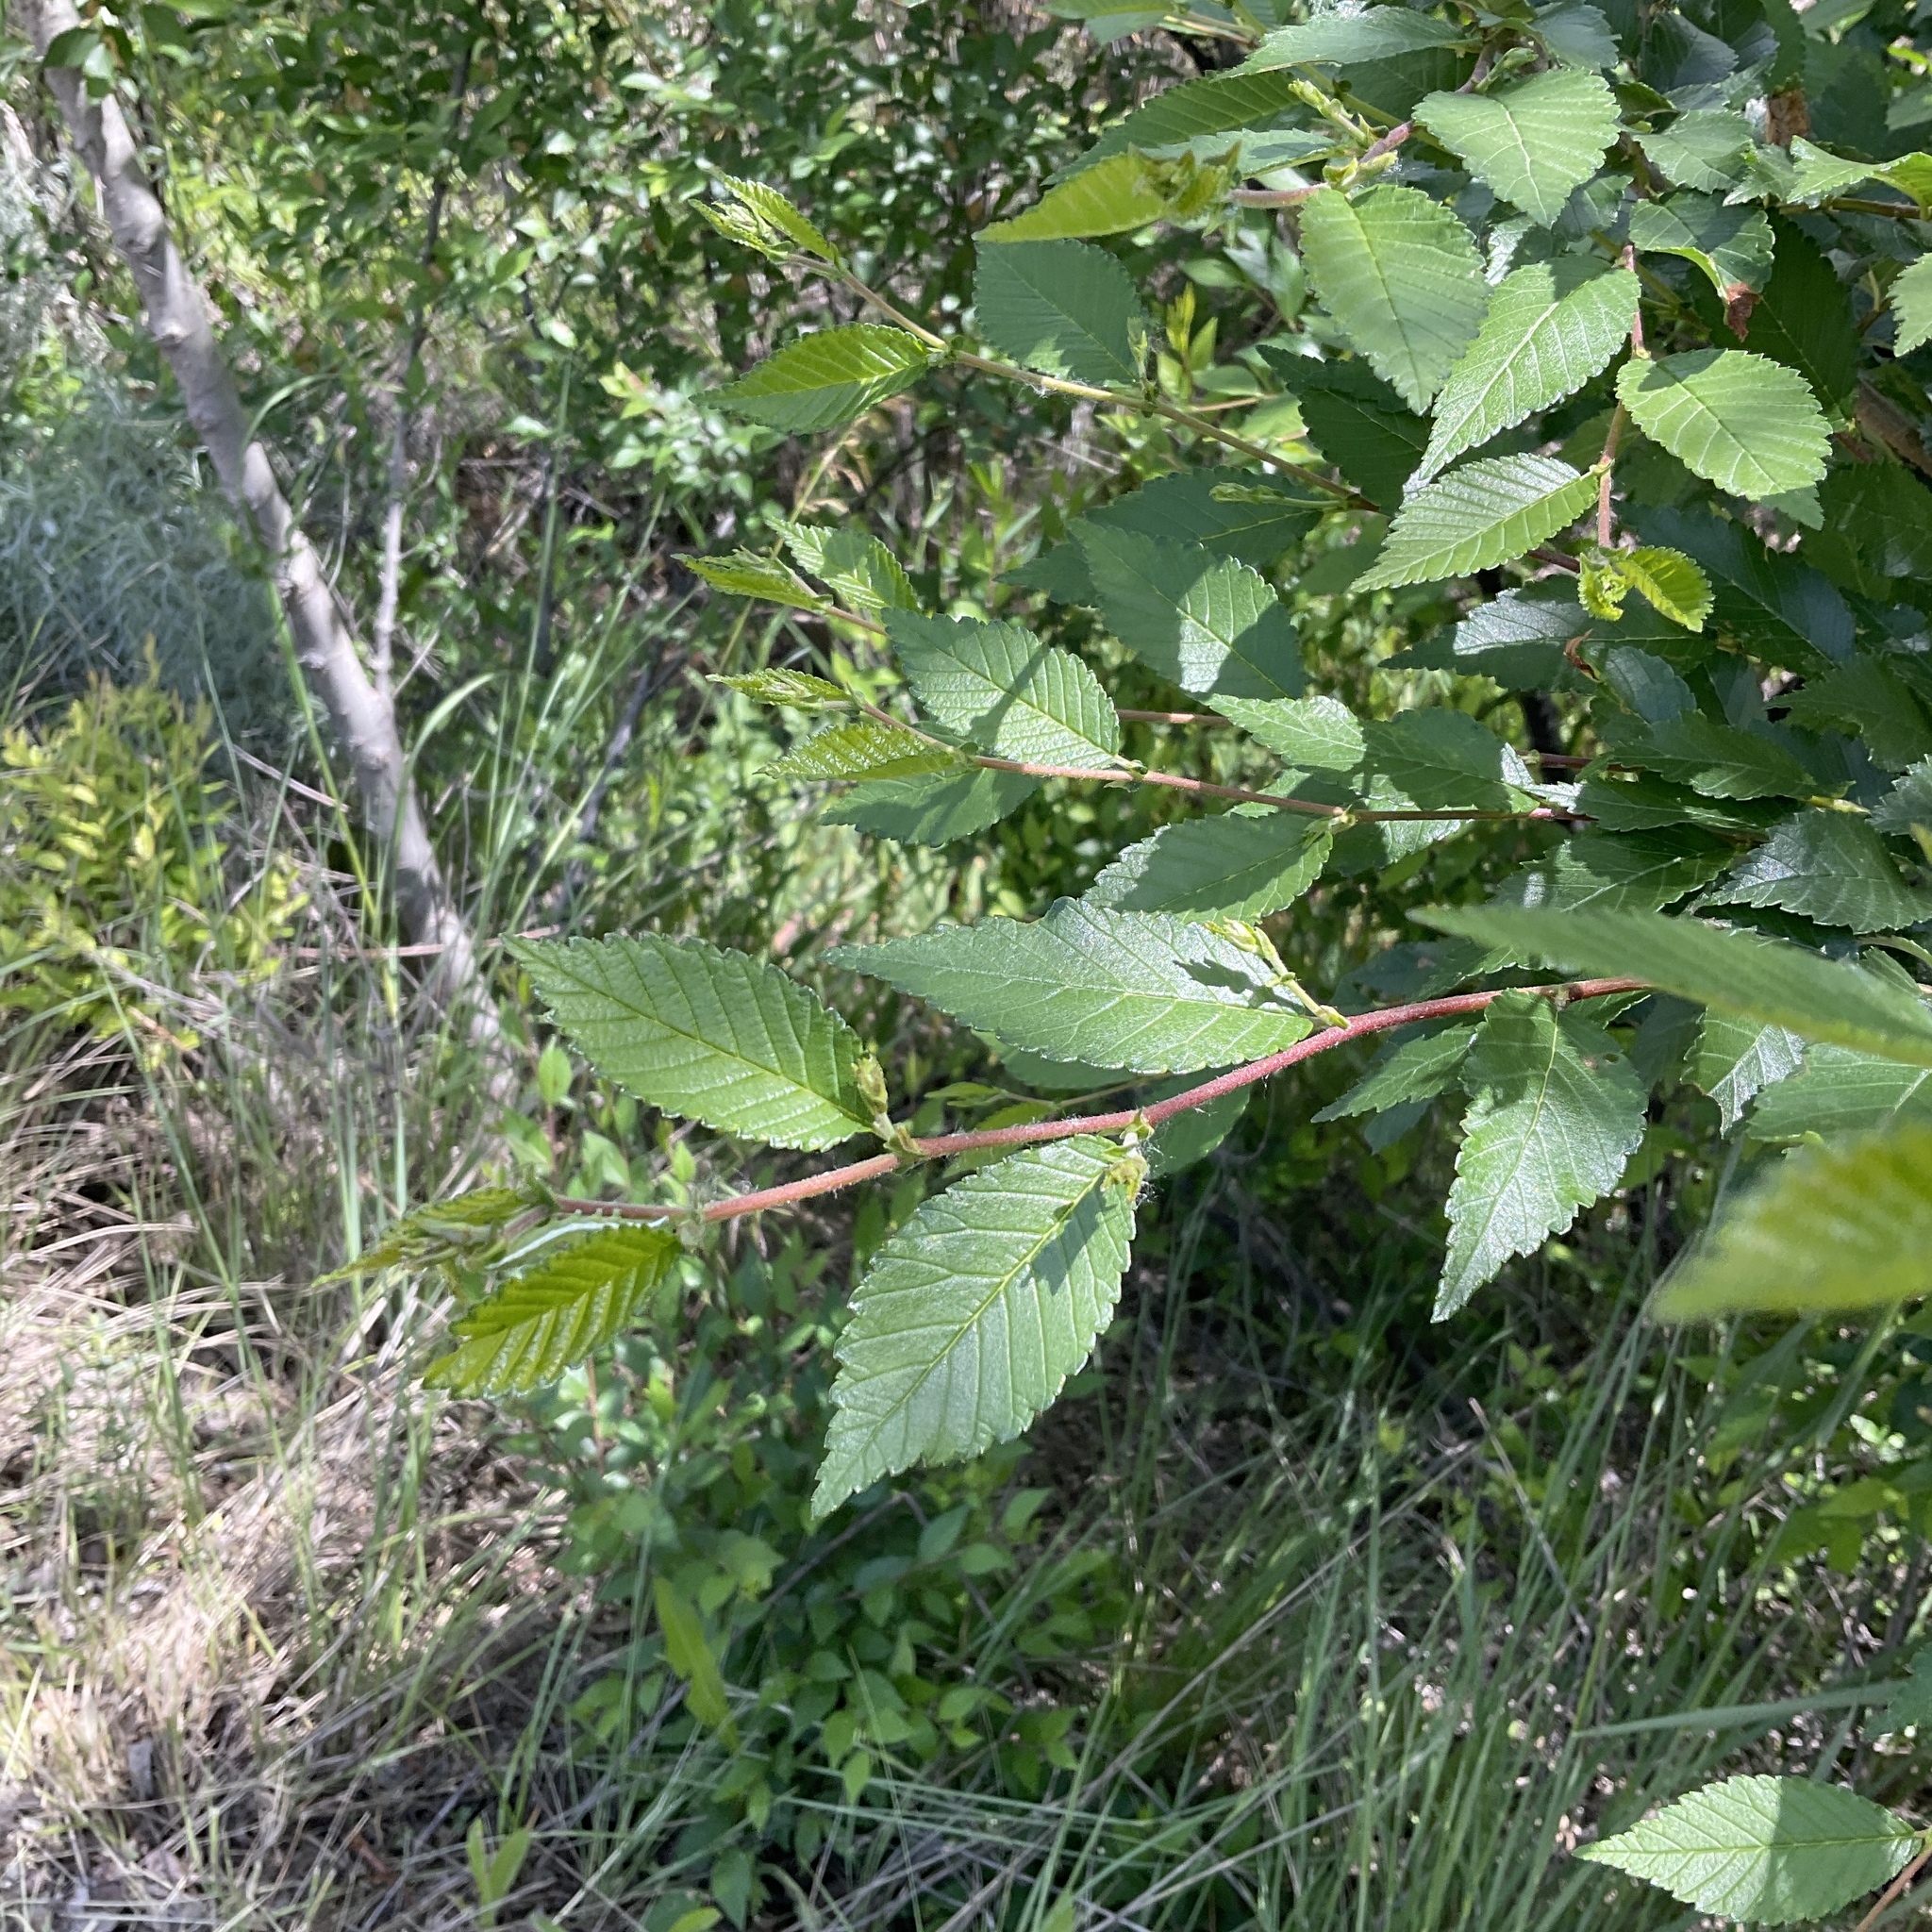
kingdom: Plantae
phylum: Tracheophyta
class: Magnoliopsida
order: Rosales
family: Ulmaceae
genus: Ulmus
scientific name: Ulmus pumila
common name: Siberian elm
